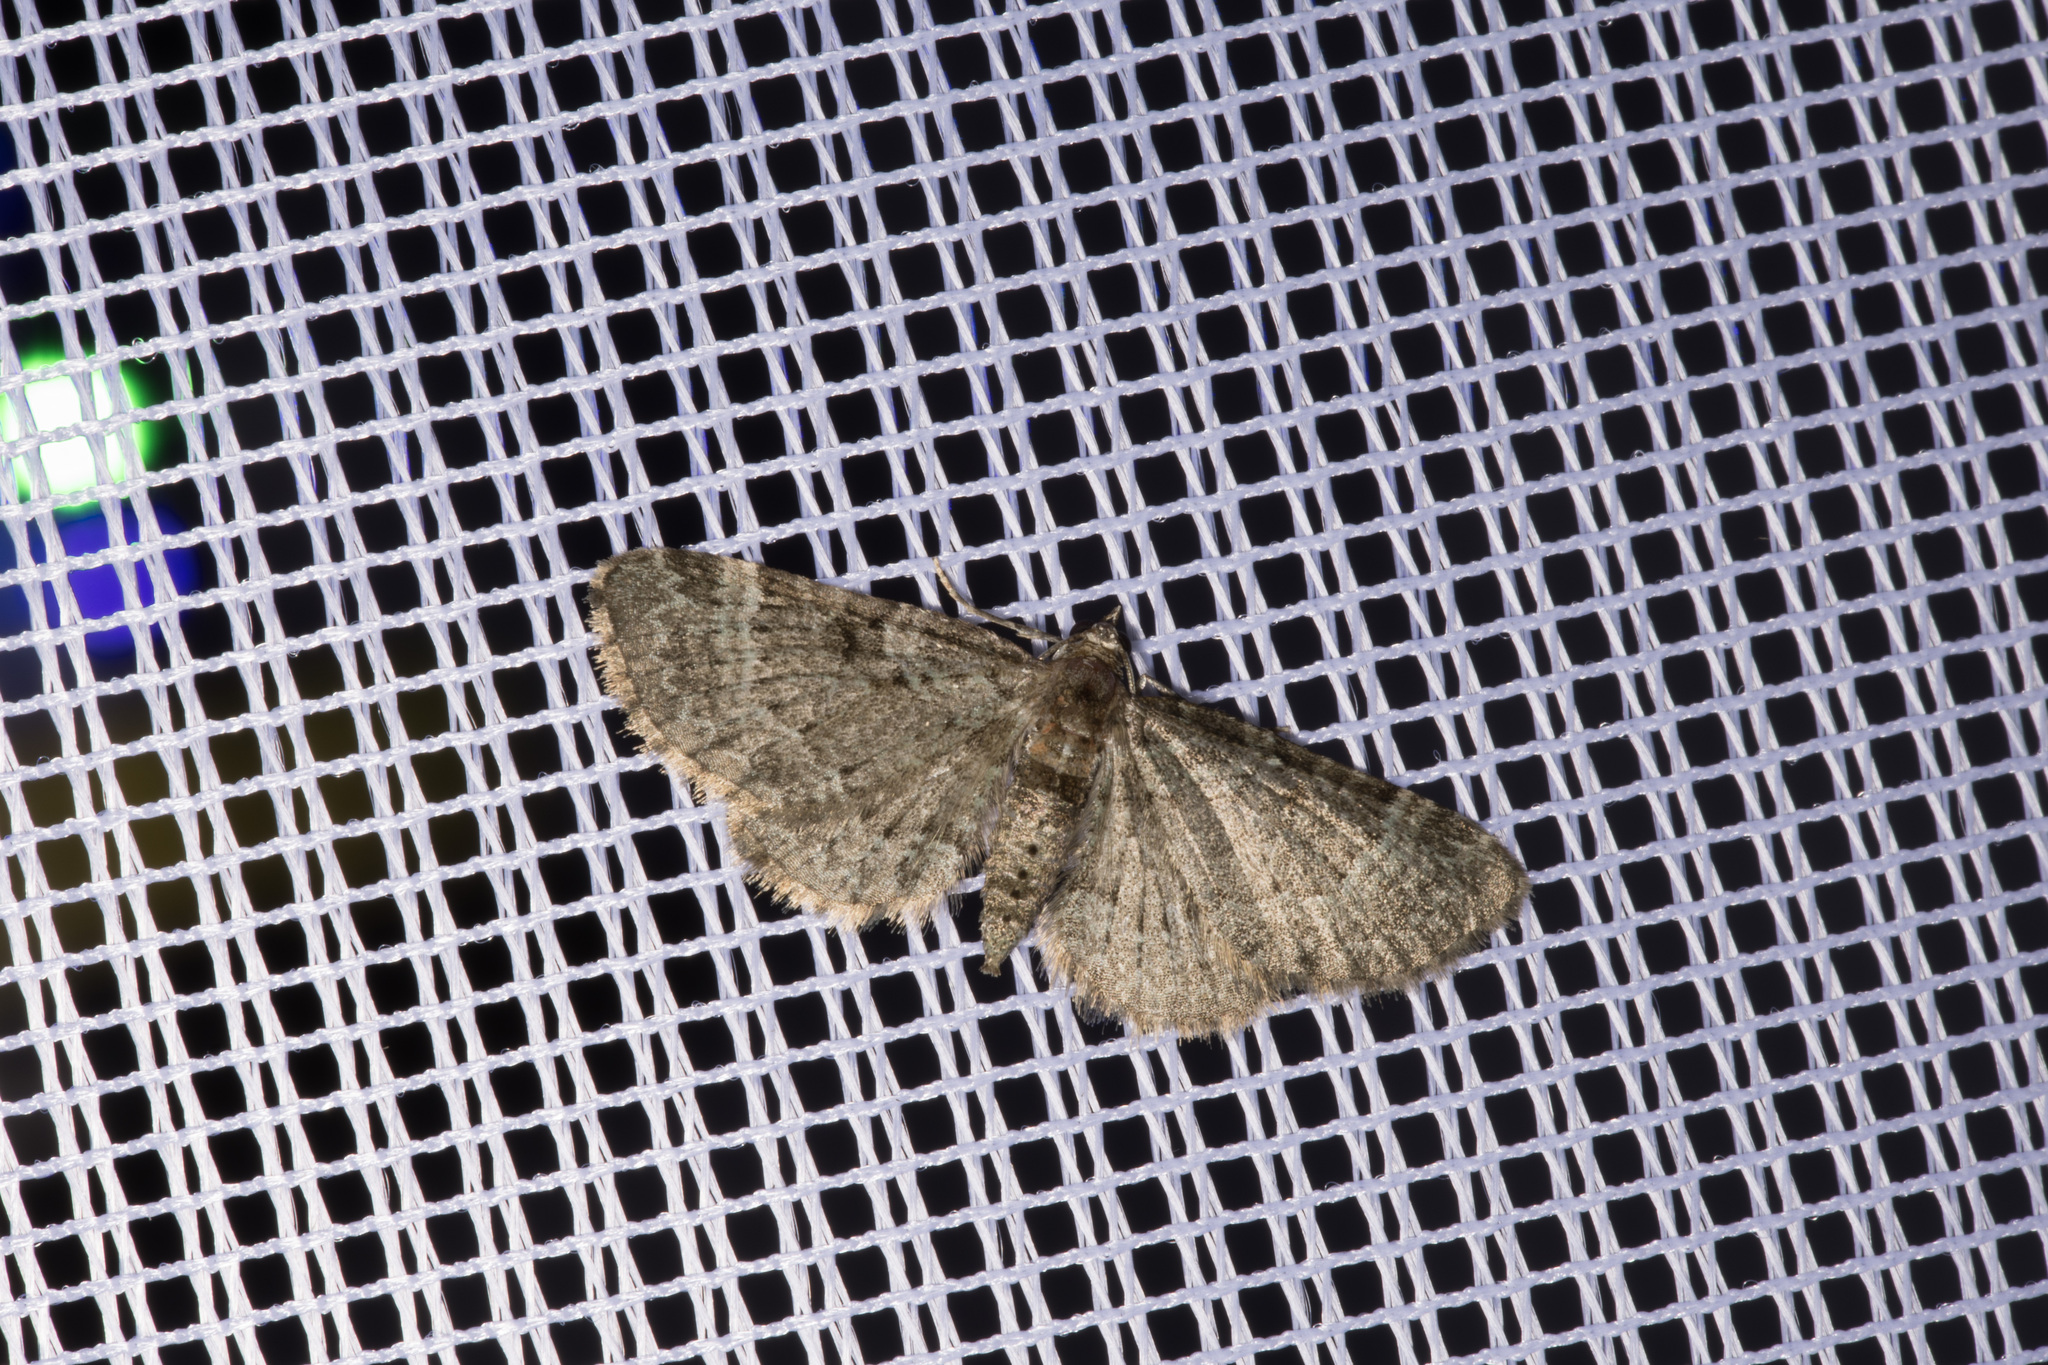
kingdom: Animalia
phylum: Arthropoda
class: Insecta
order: Lepidoptera
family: Geometridae
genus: Pasiphila
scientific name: Pasiphila chloerata
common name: Sloe pug
